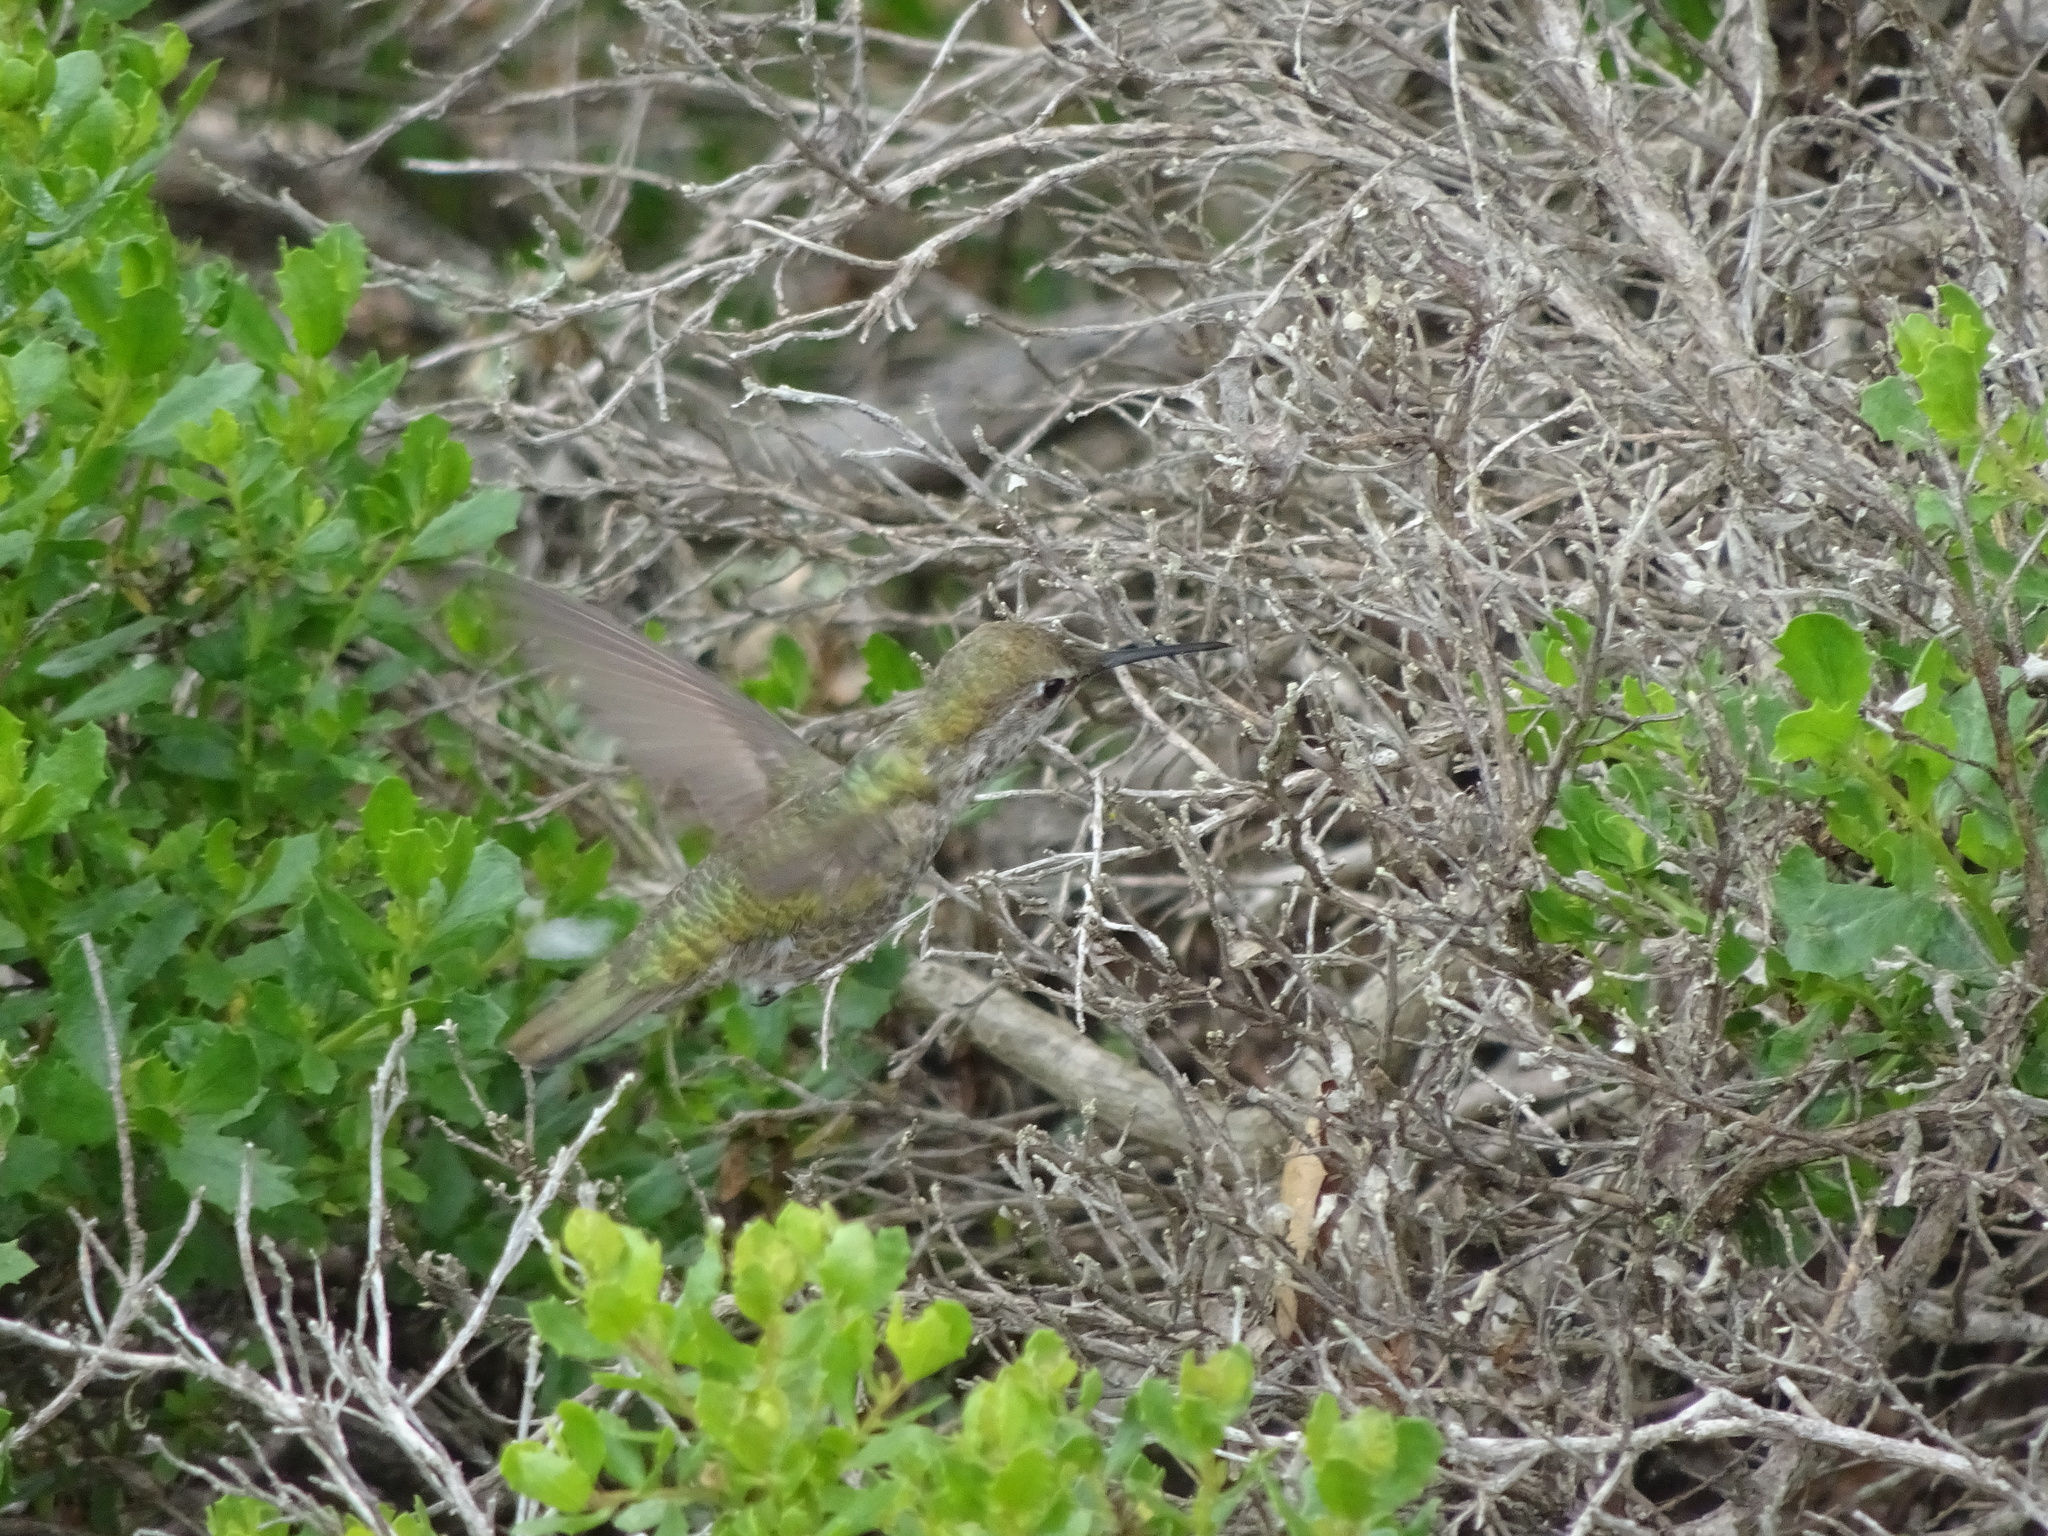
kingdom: Animalia
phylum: Chordata
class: Aves
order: Apodiformes
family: Trochilidae
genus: Calypte
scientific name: Calypte anna
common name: Anna's hummingbird
